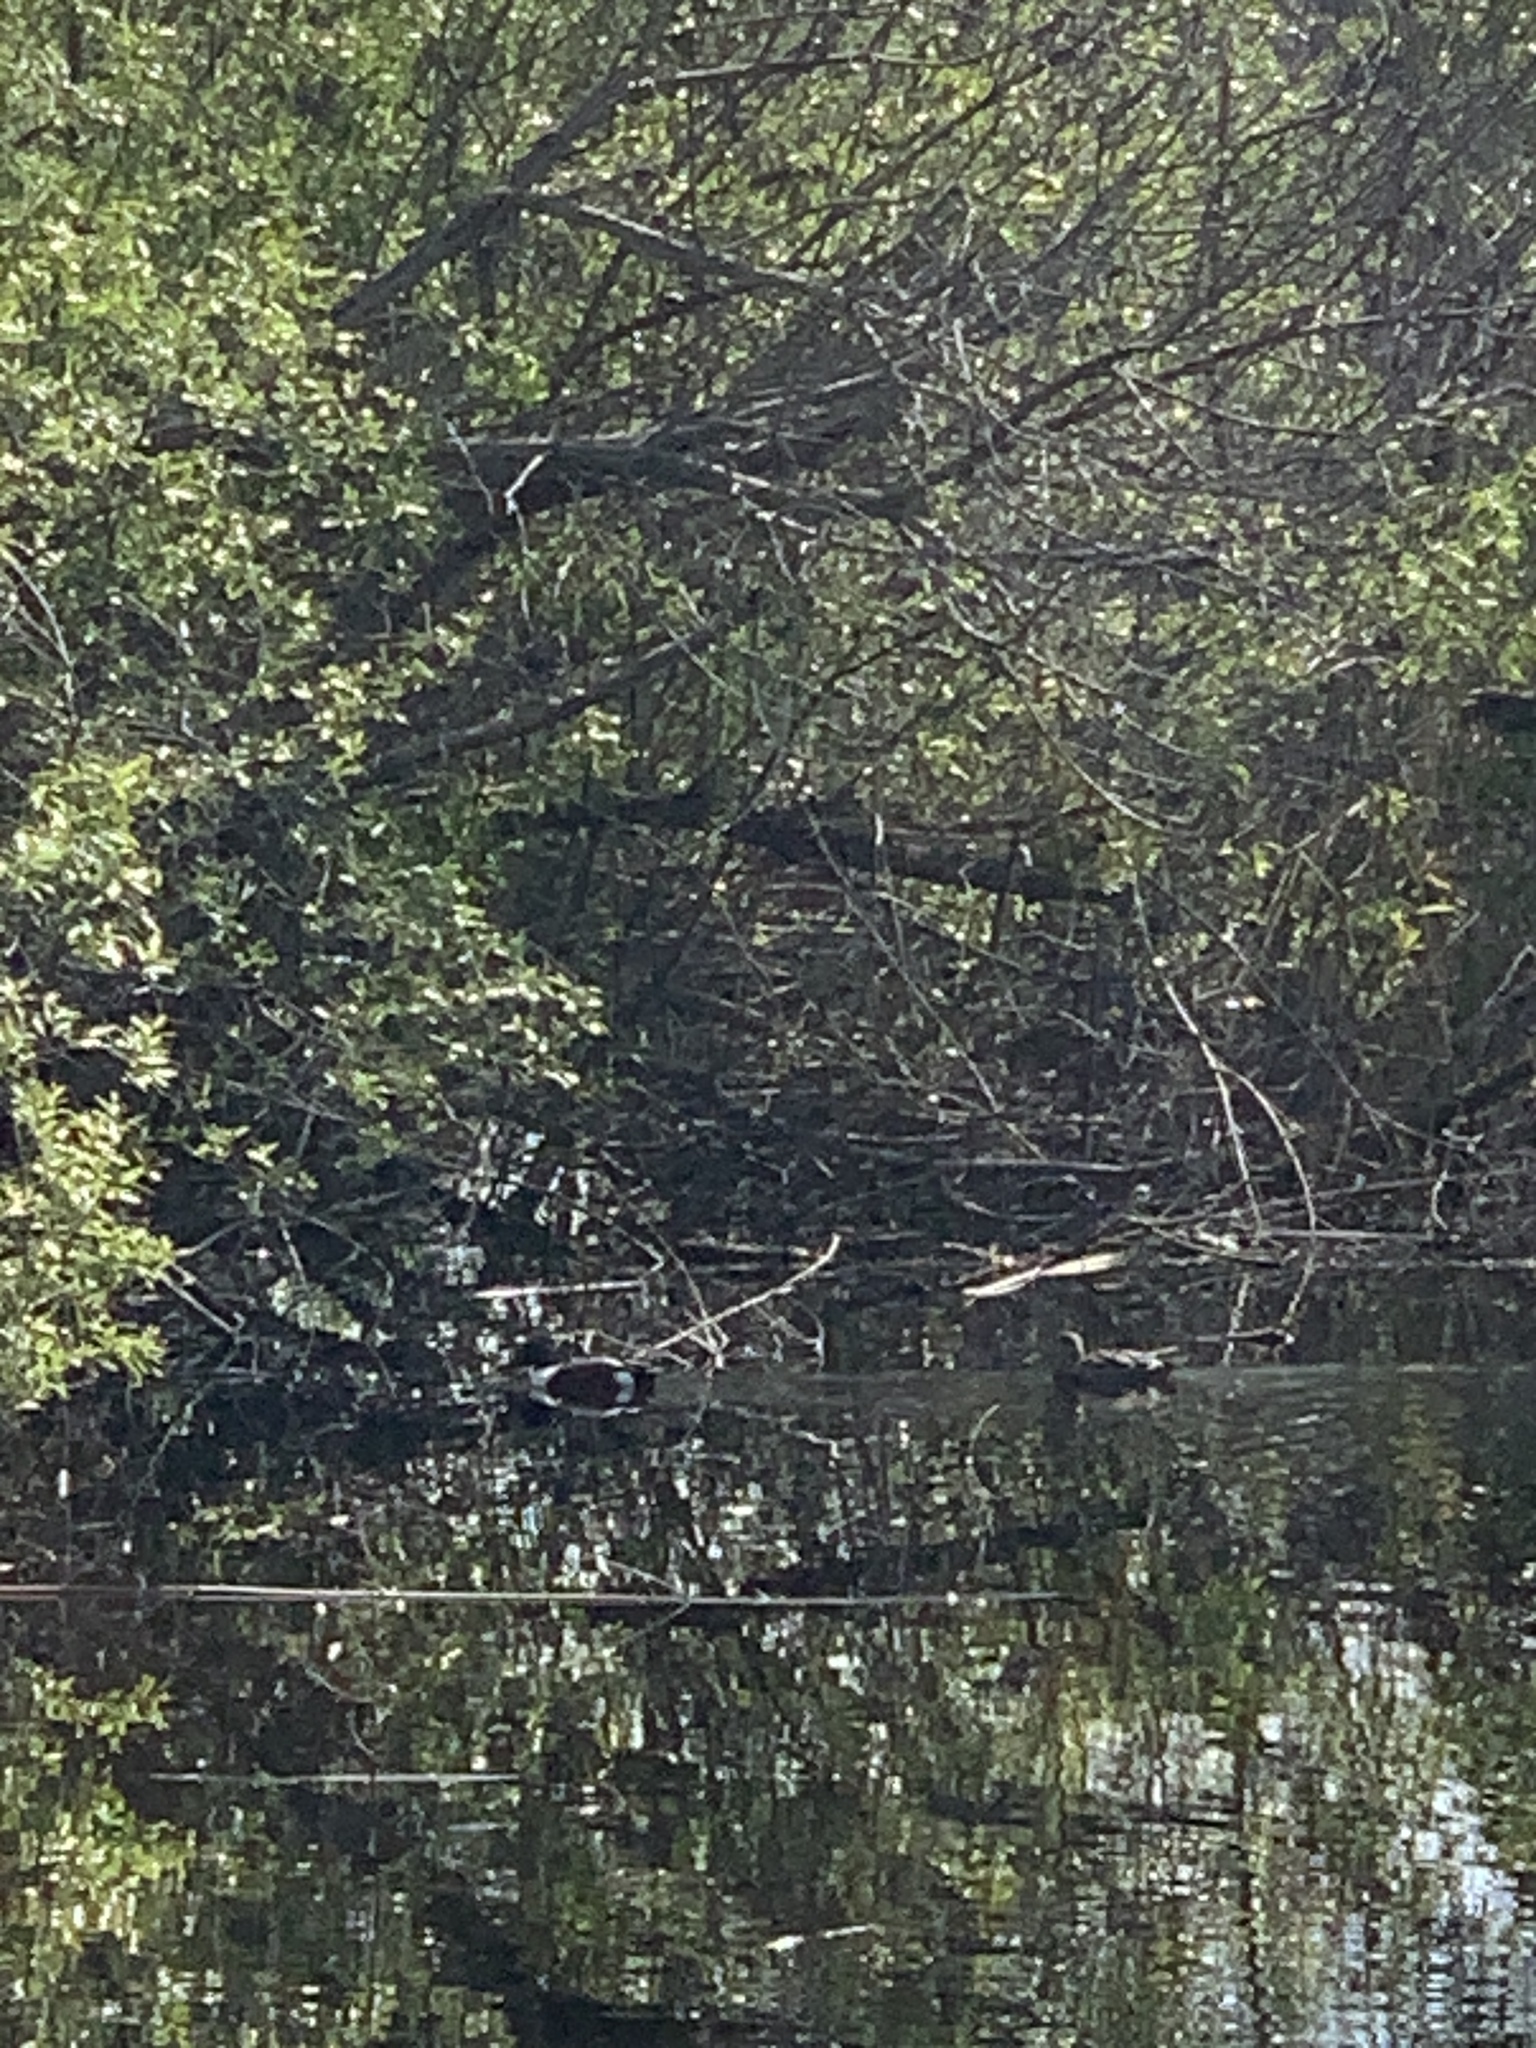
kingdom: Animalia
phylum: Chordata
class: Aves
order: Anseriformes
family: Anatidae
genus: Spatula
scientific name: Spatula clypeata
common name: Northern shoveler
